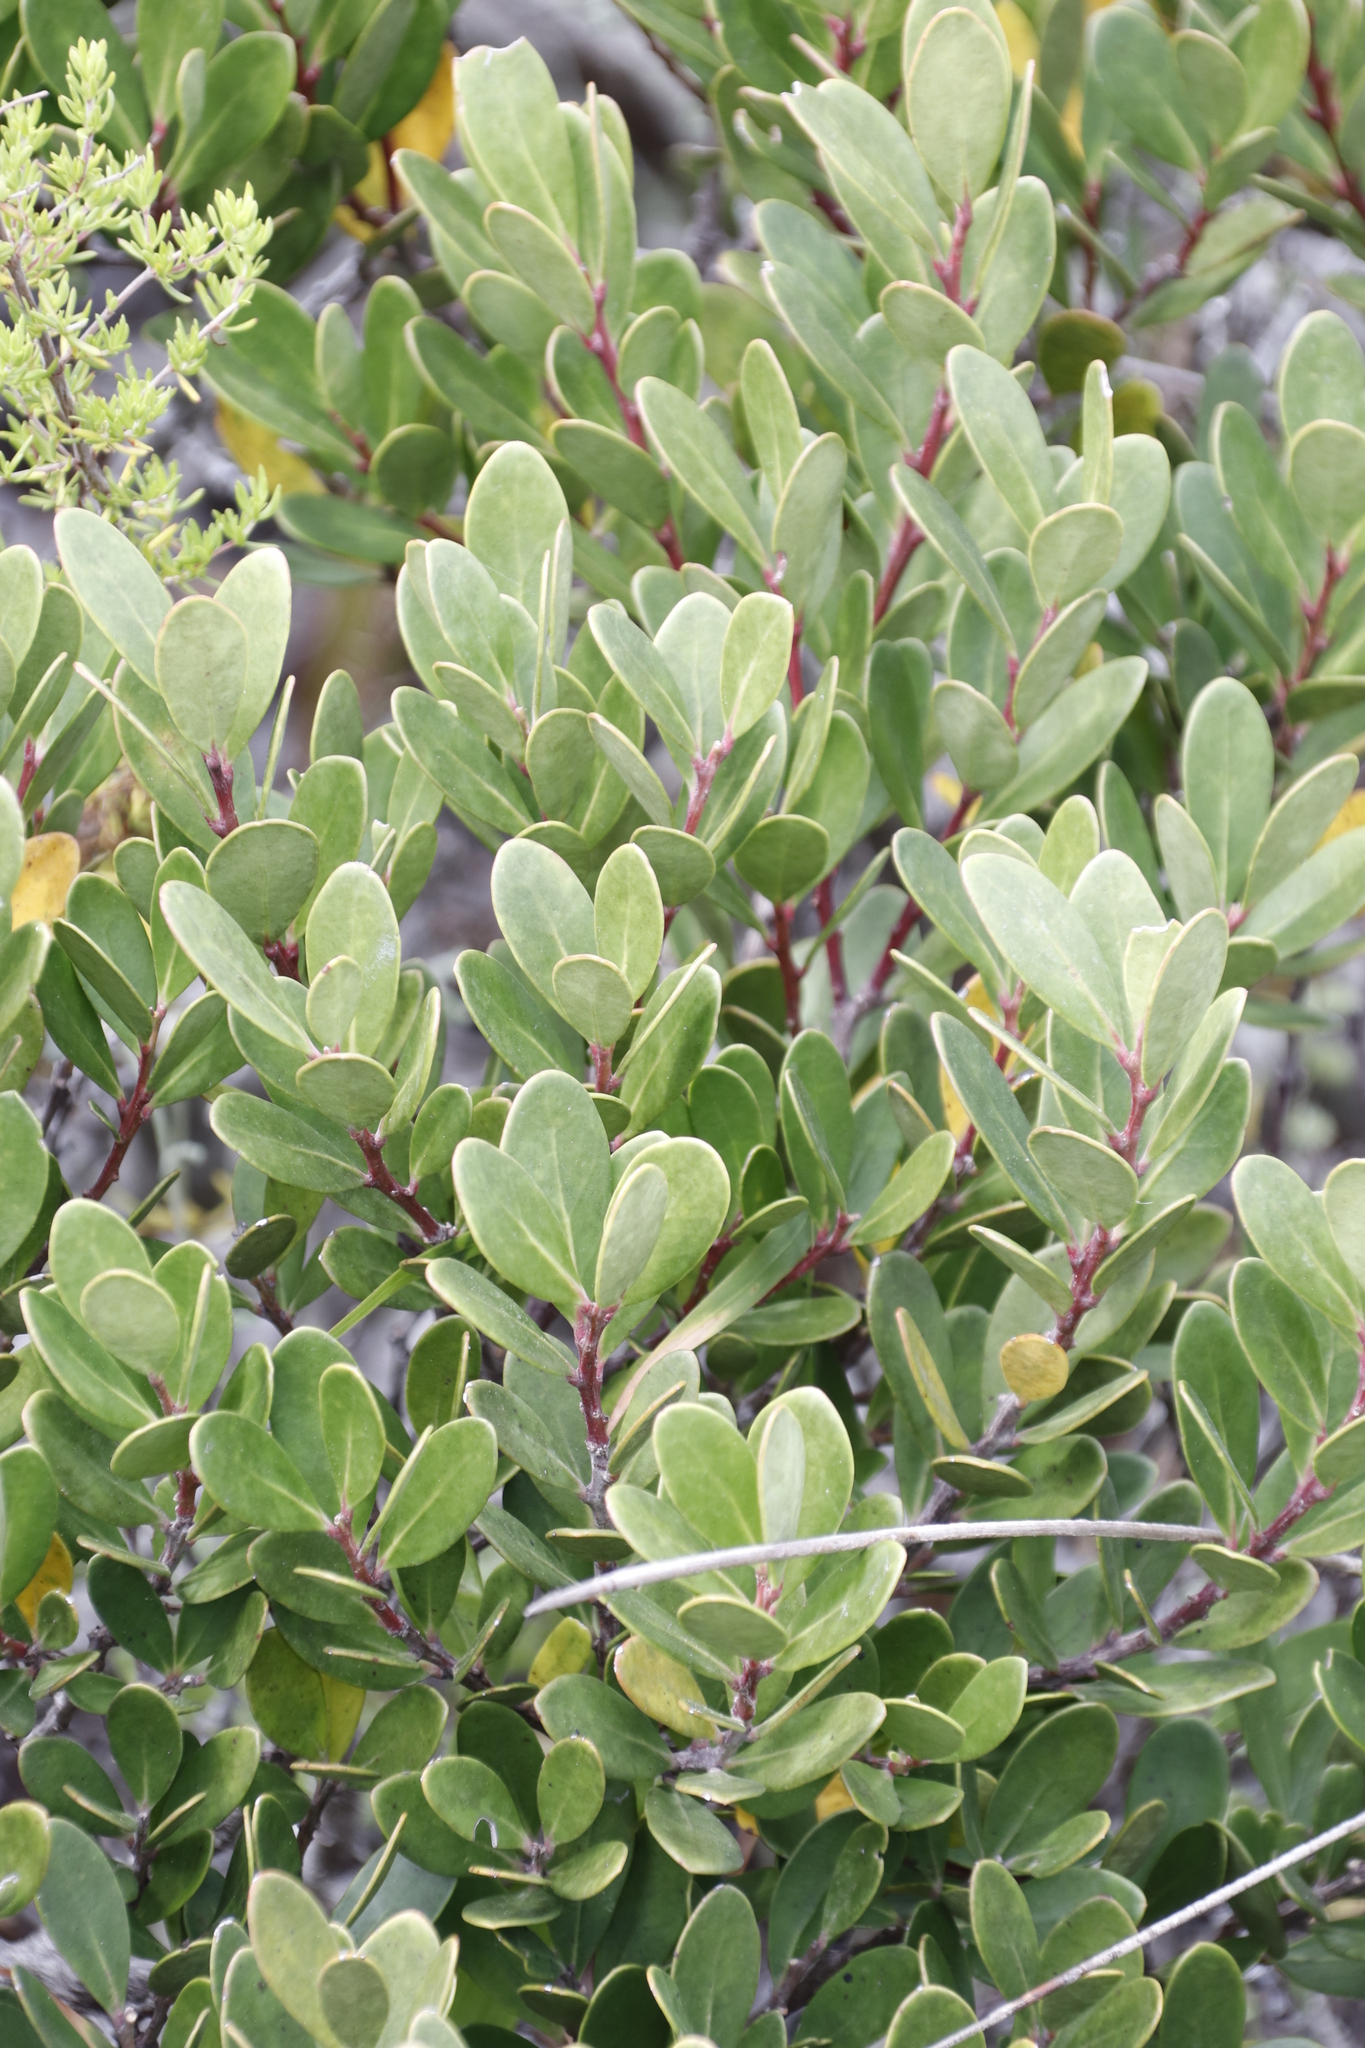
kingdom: Plantae
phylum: Tracheophyta
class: Magnoliopsida
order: Celastrales
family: Celastraceae
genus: Pterocelastrus
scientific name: Pterocelastrus tricuspidatus
